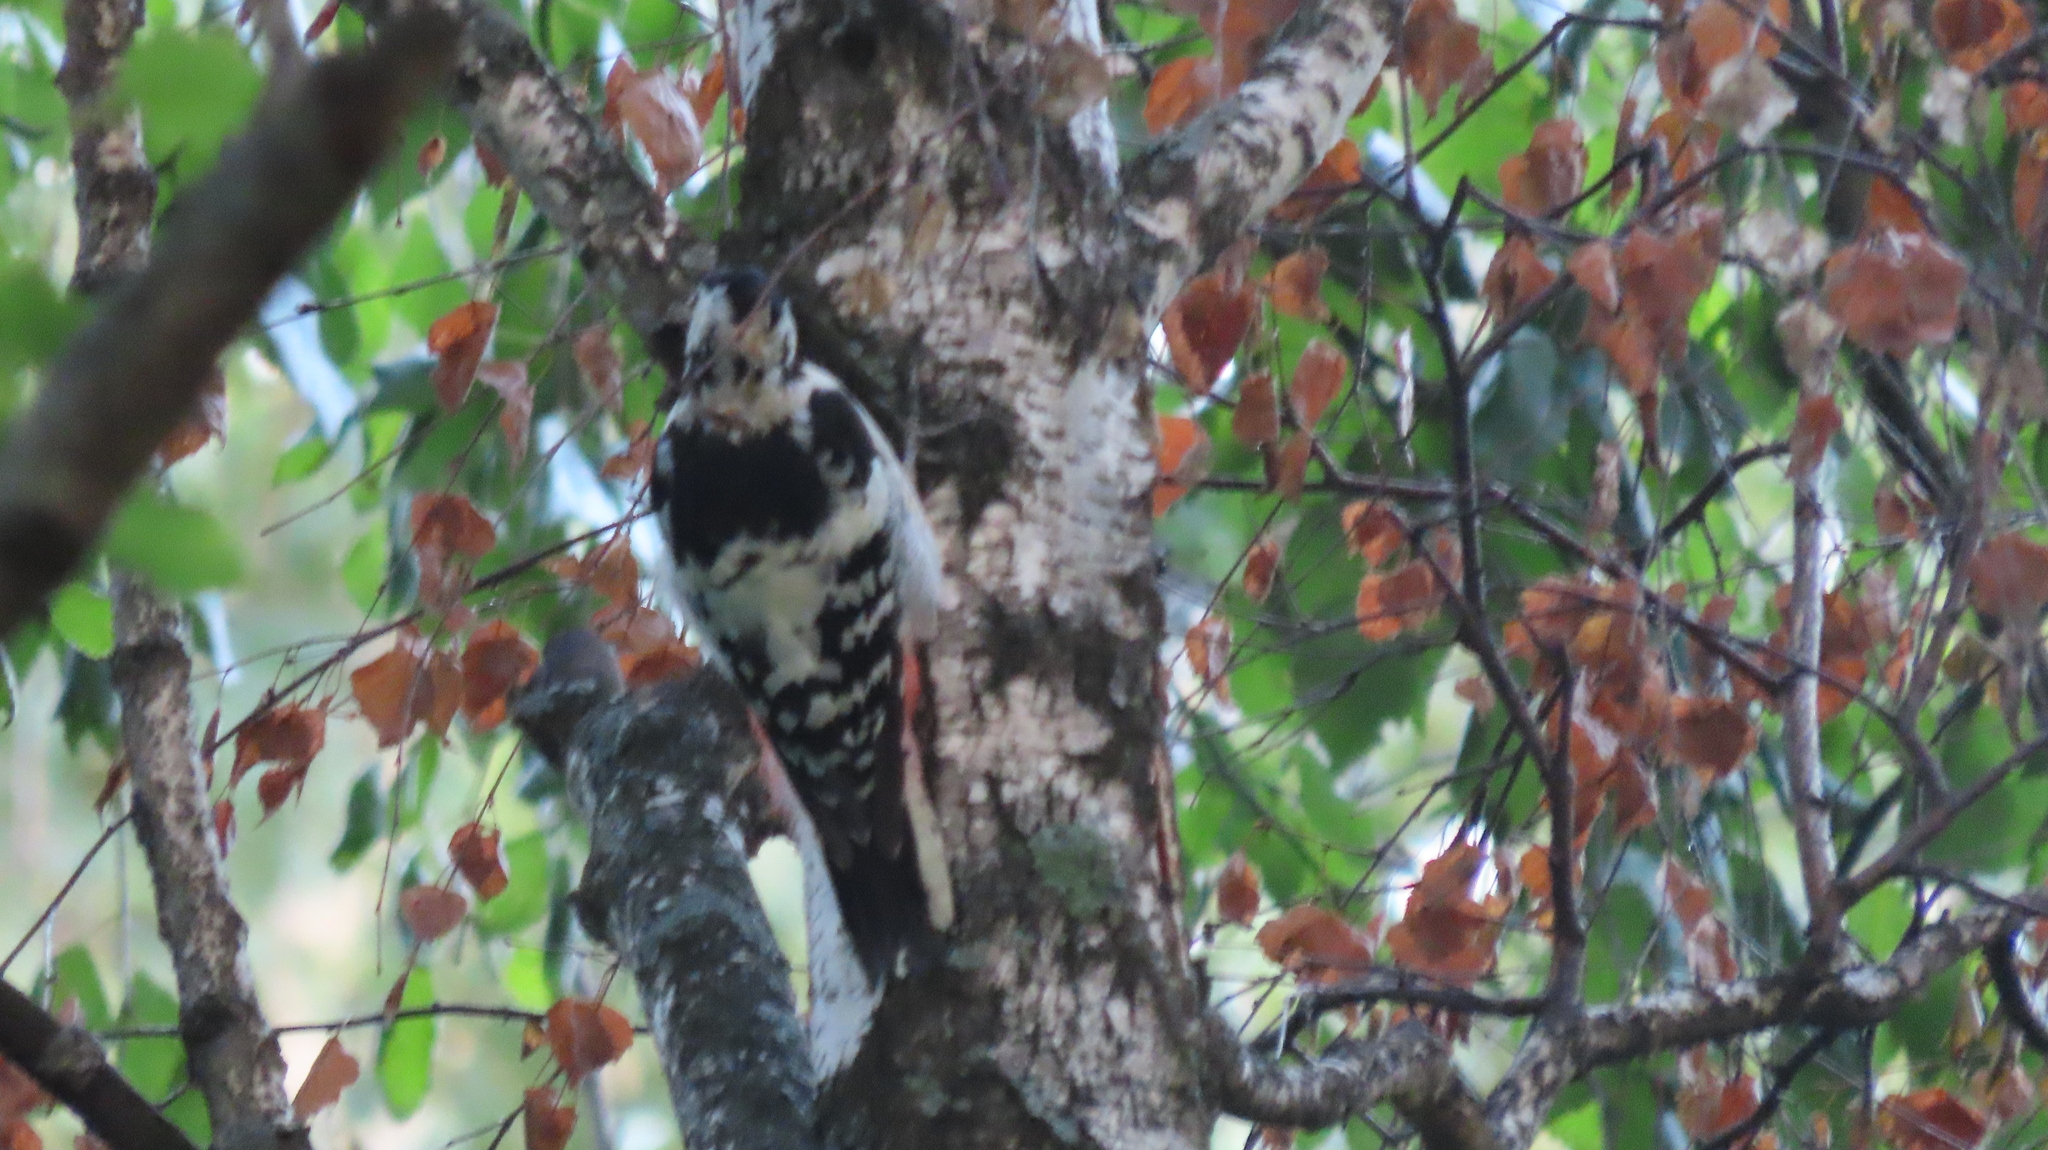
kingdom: Animalia
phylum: Chordata
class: Aves
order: Piciformes
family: Picidae
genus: Dendrocopos
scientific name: Dendrocopos leucotos
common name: White-backed woodpecker
